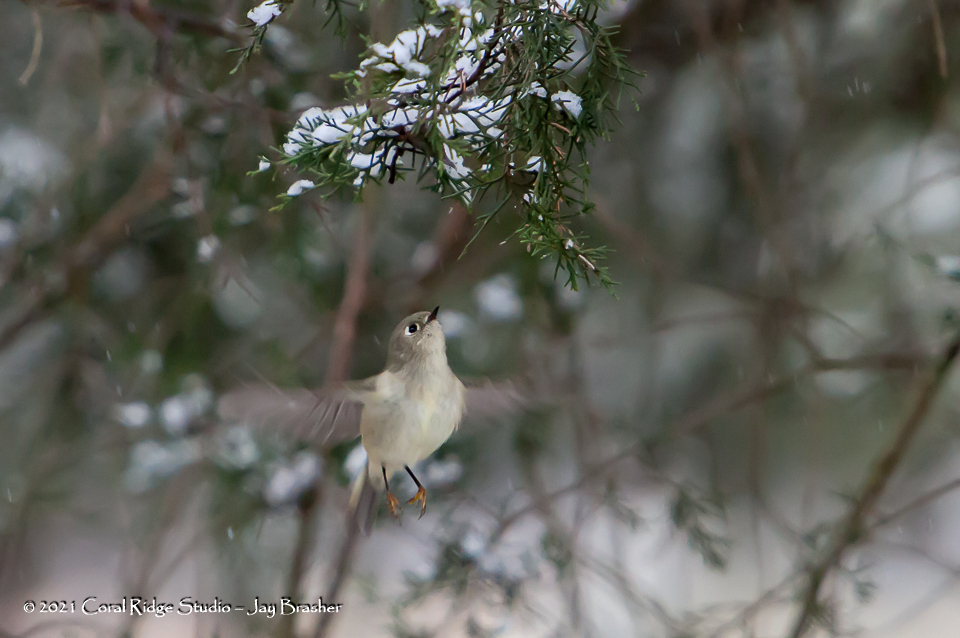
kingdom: Animalia
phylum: Chordata
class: Aves
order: Passeriformes
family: Regulidae
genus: Regulus
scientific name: Regulus calendula
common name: Ruby-crowned kinglet
